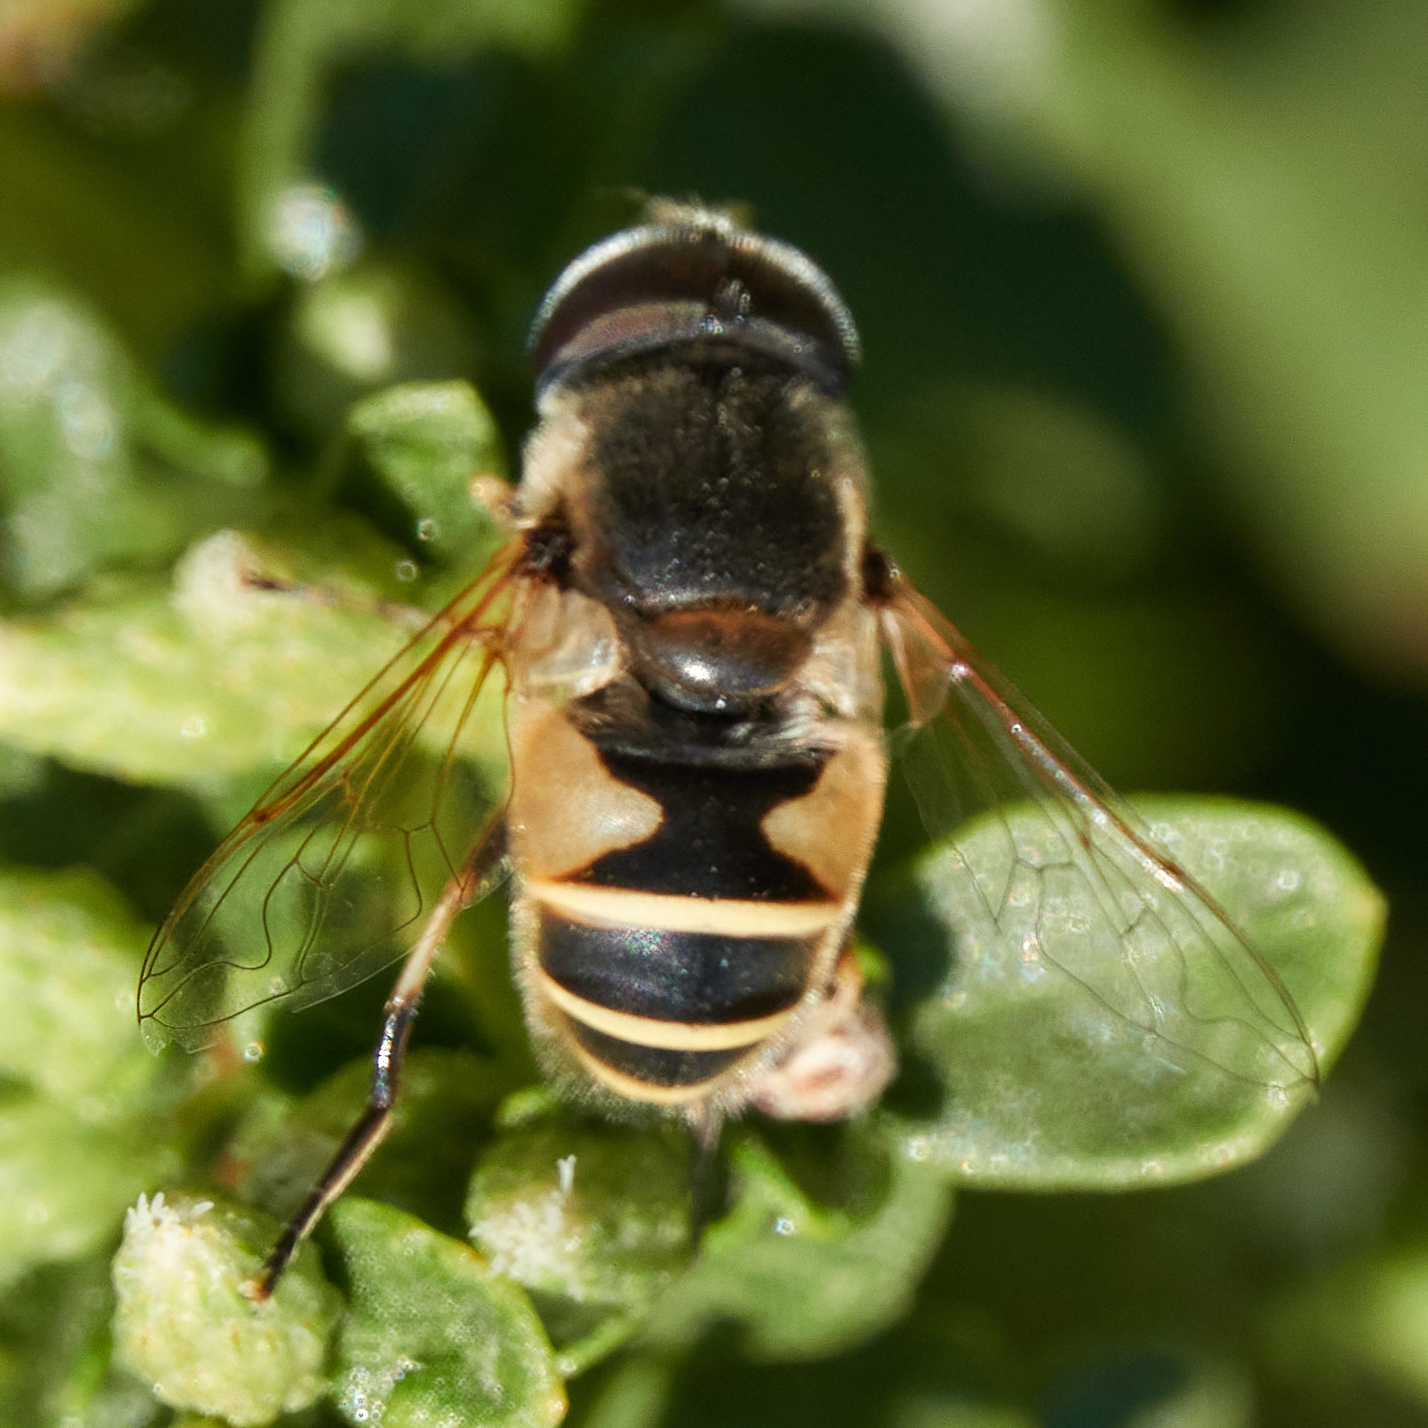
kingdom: Animalia
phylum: Arthropoda
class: Insecta
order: Diptera
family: Syrphidae
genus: Eristalis
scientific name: Eristalis hirta
